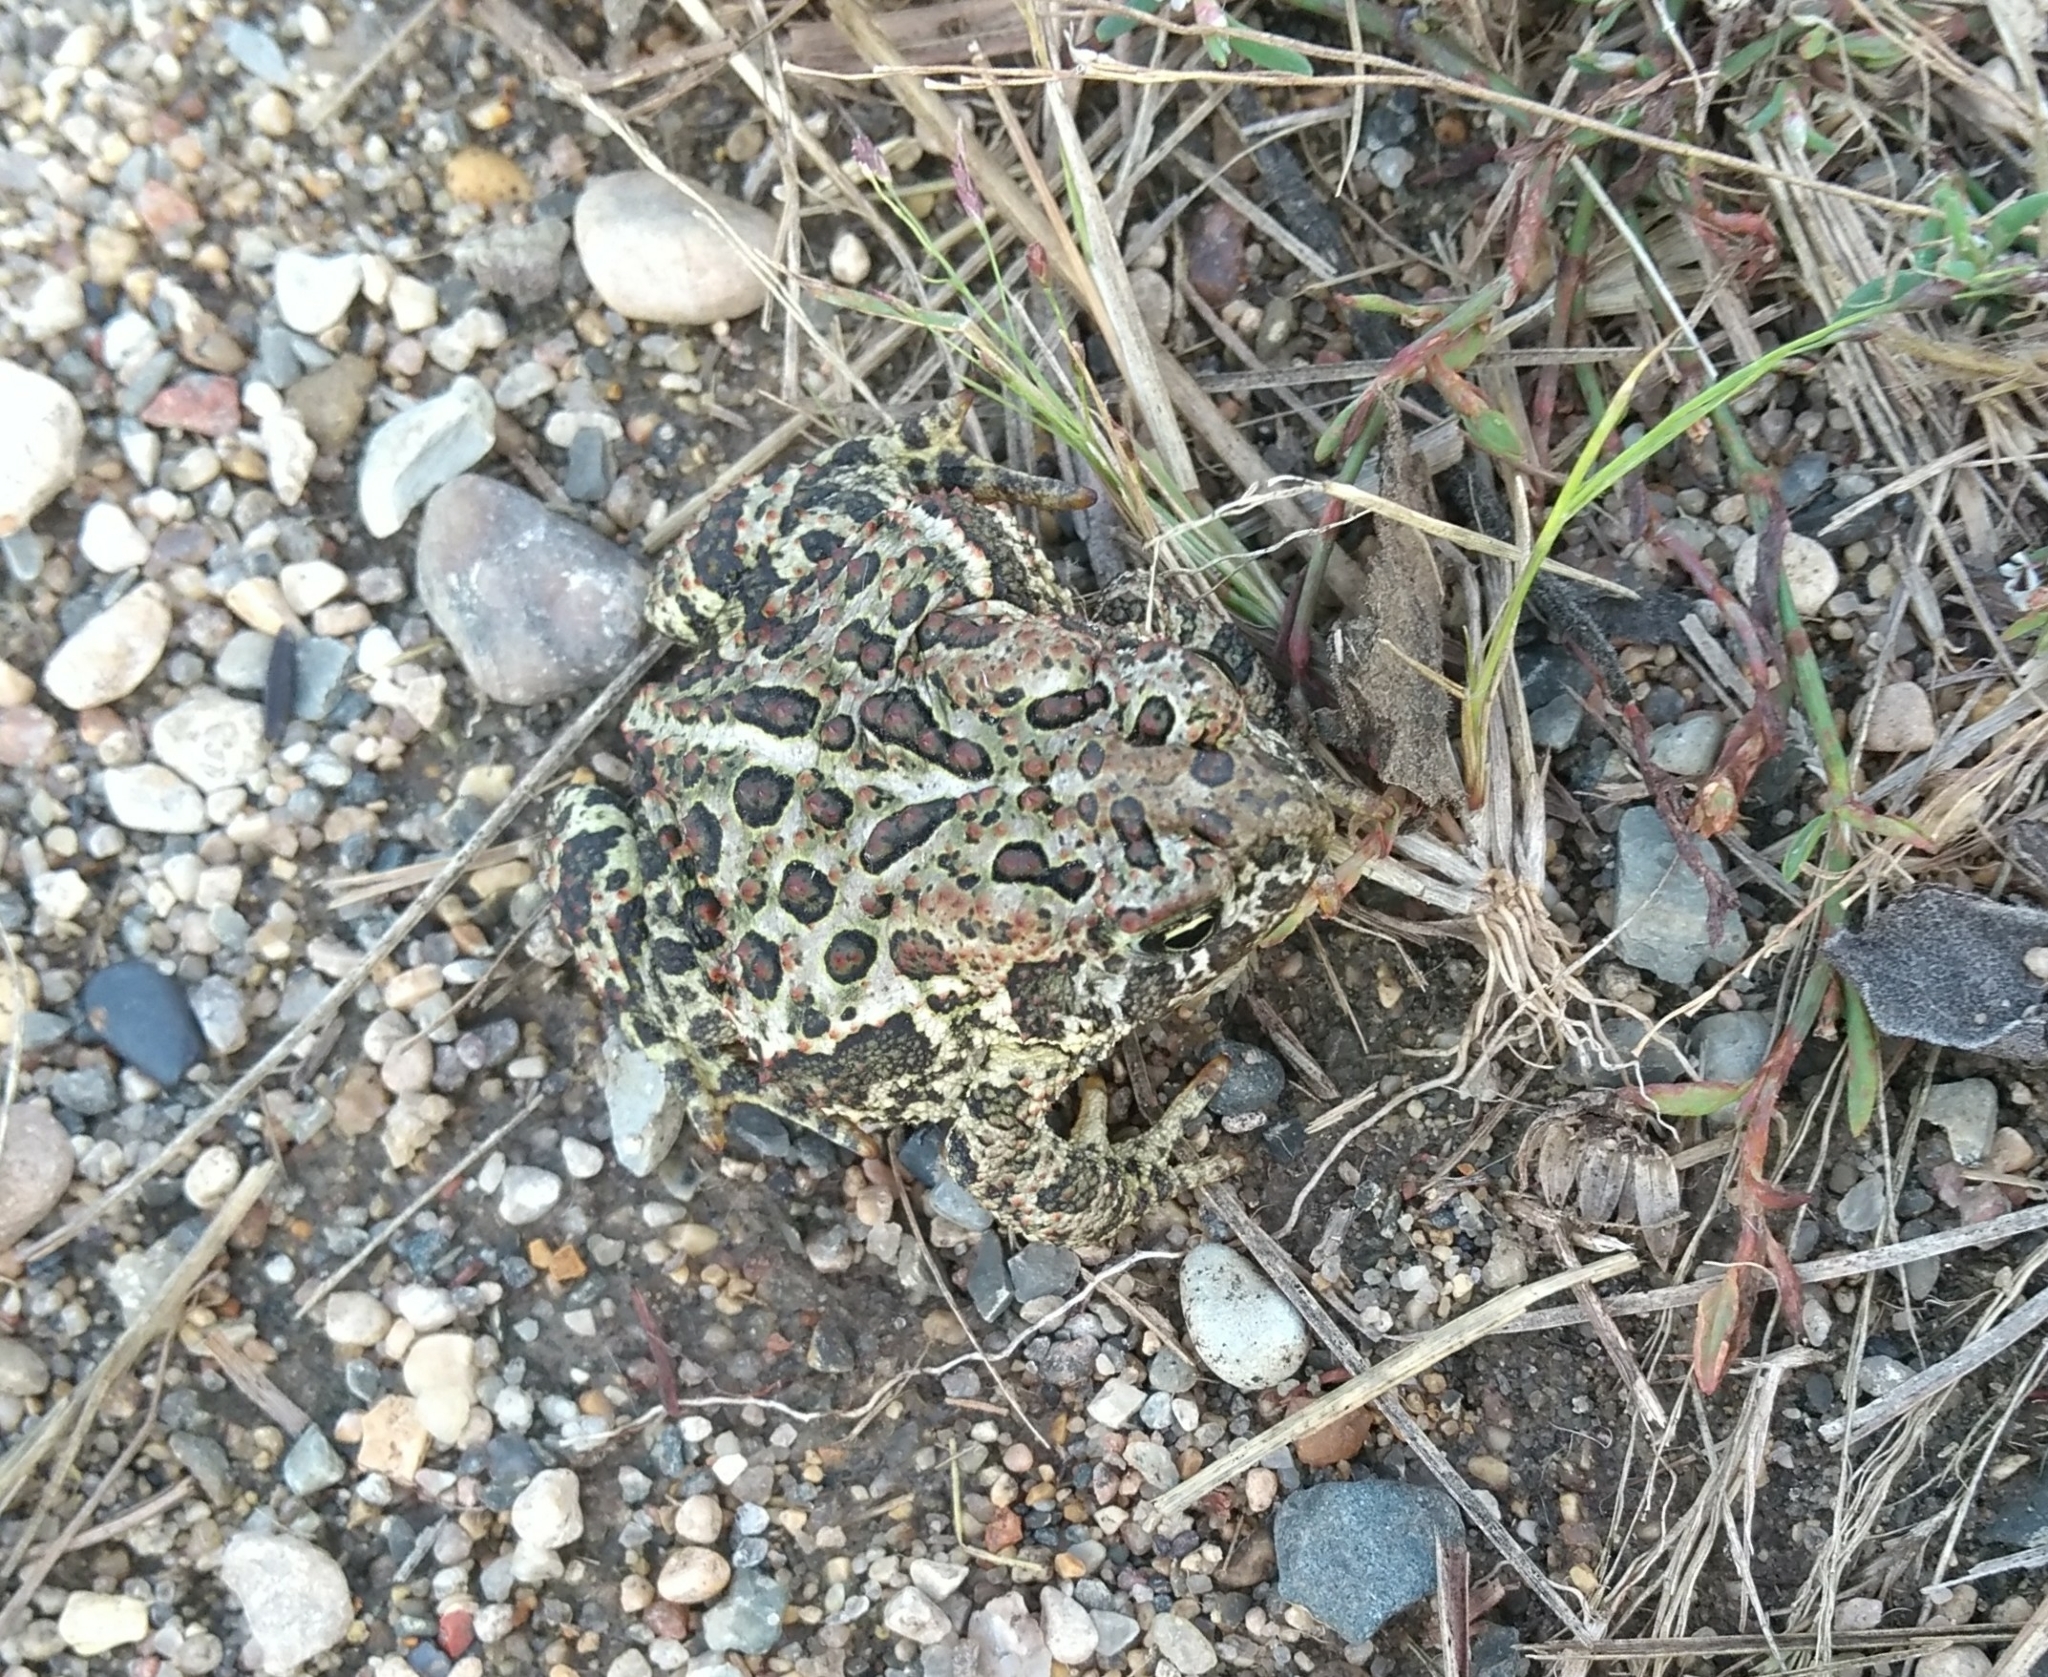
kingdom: Animalia
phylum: Chordata
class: Amphibia
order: Anura
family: Bufonidae
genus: Anaxyrus
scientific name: Anaxyrus hemiophrys
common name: Canadian toad
